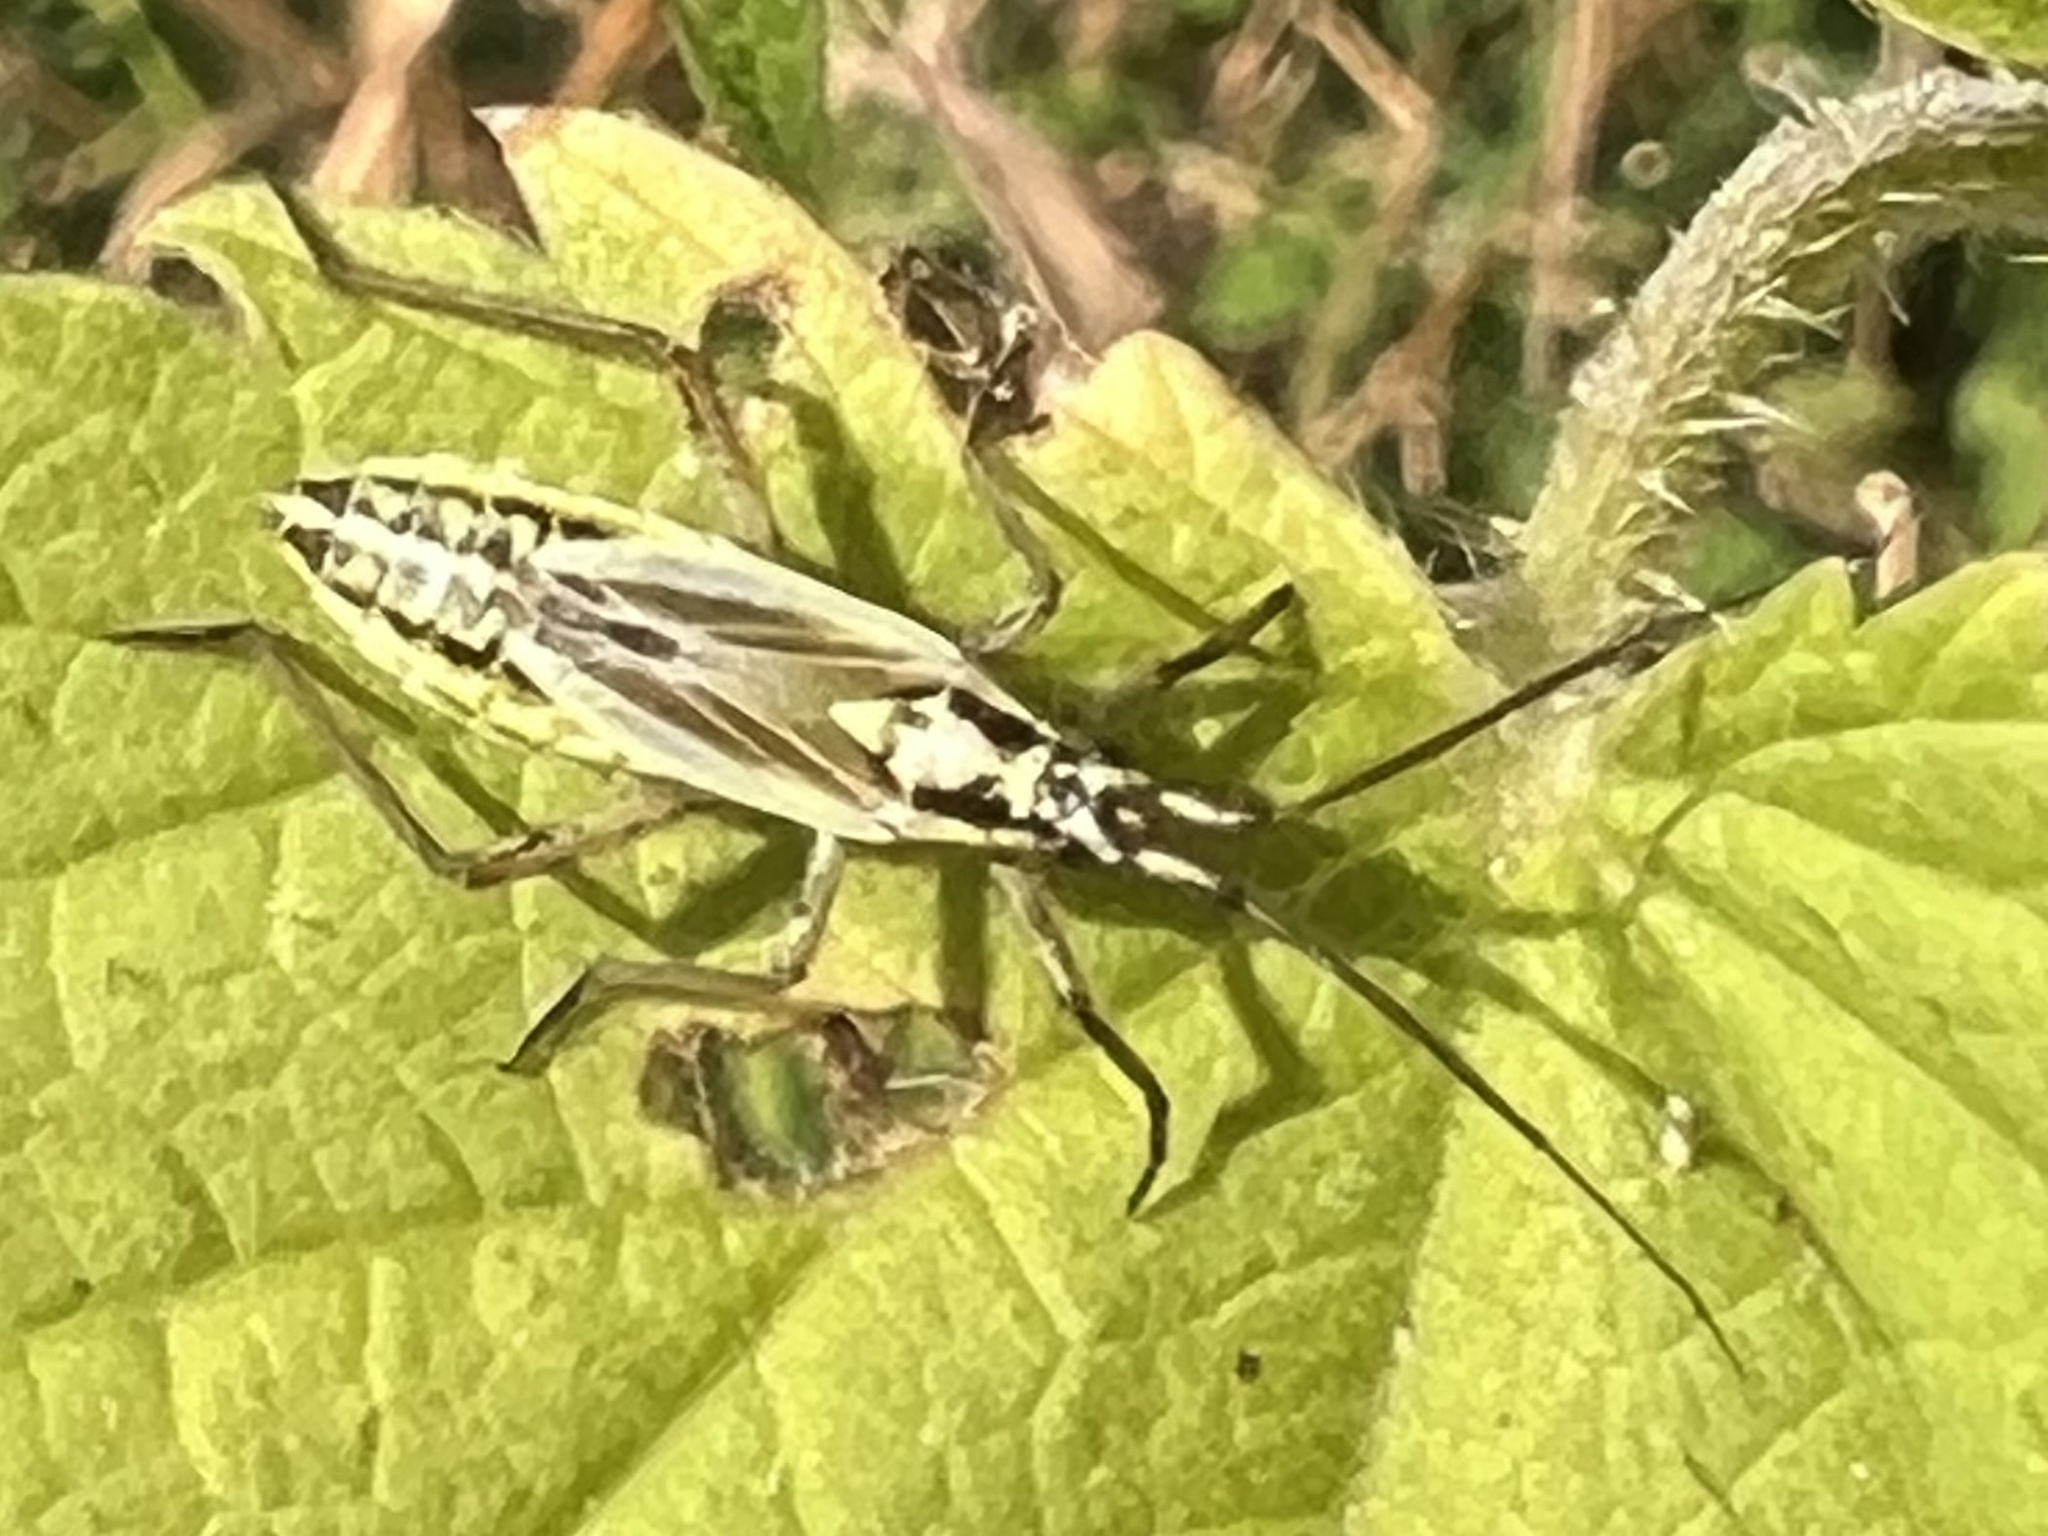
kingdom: Animalia
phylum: Arthropoda
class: Insecta
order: Hemiptera
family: Miridae
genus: Leptopterna
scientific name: Leptopterna dolabrata
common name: Meadow plant bug
